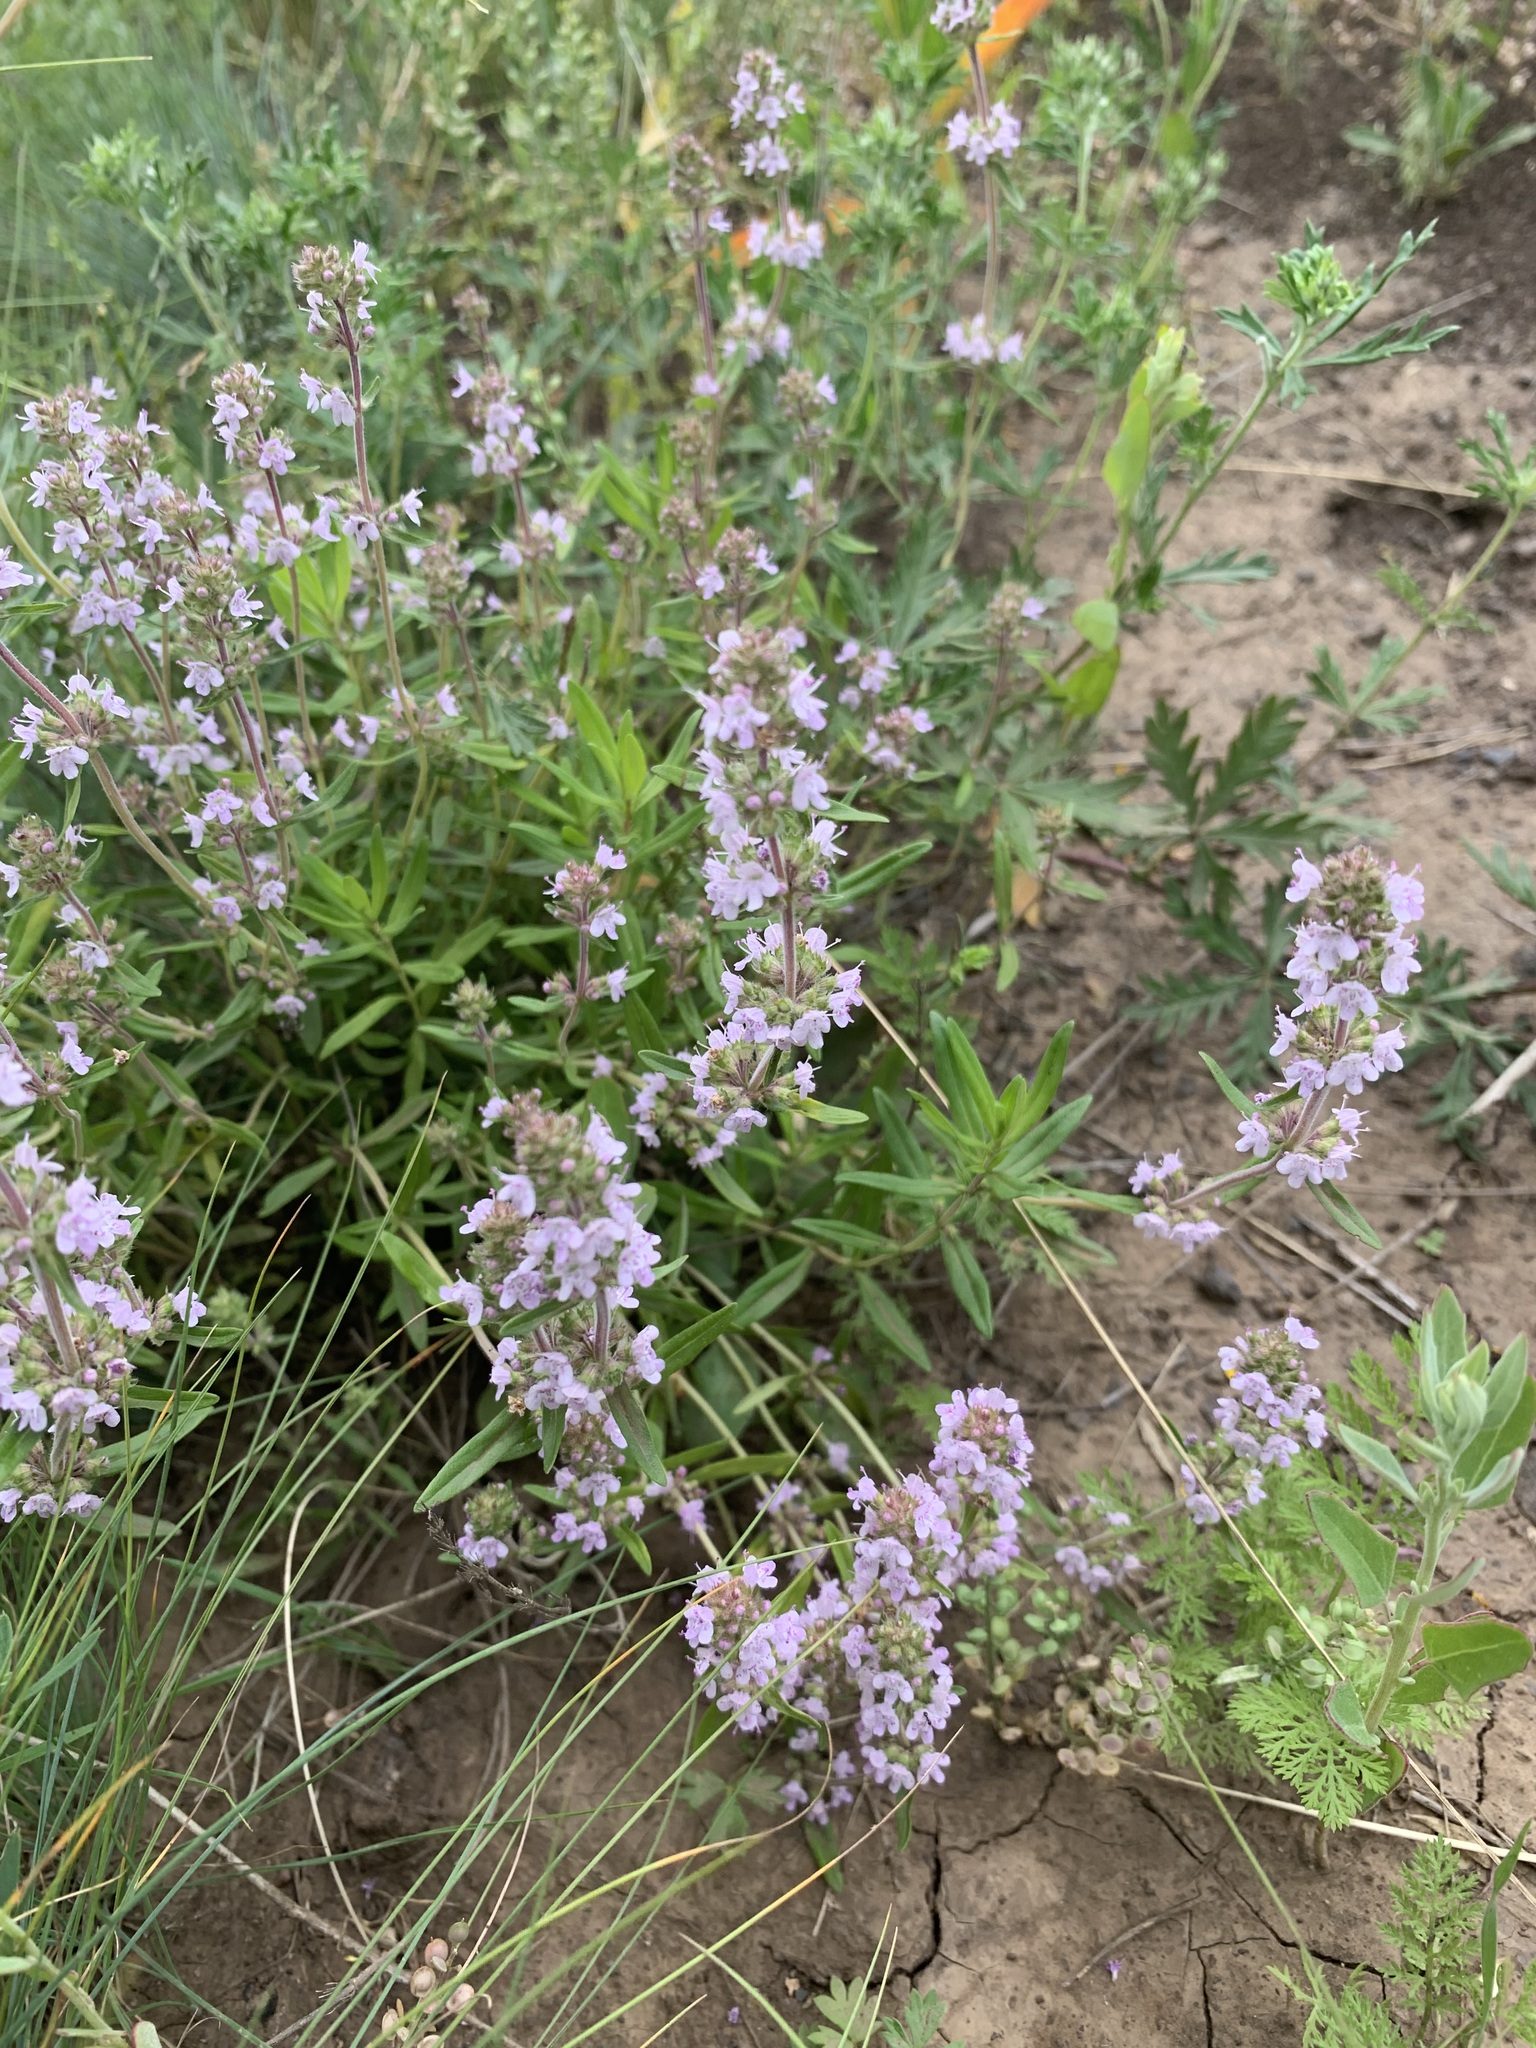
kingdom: Plantae
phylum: Tracheophyta
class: Magnoliopsida
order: Lamiales
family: Lamiaceae
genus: Thymus
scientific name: Thymus pannonicus
